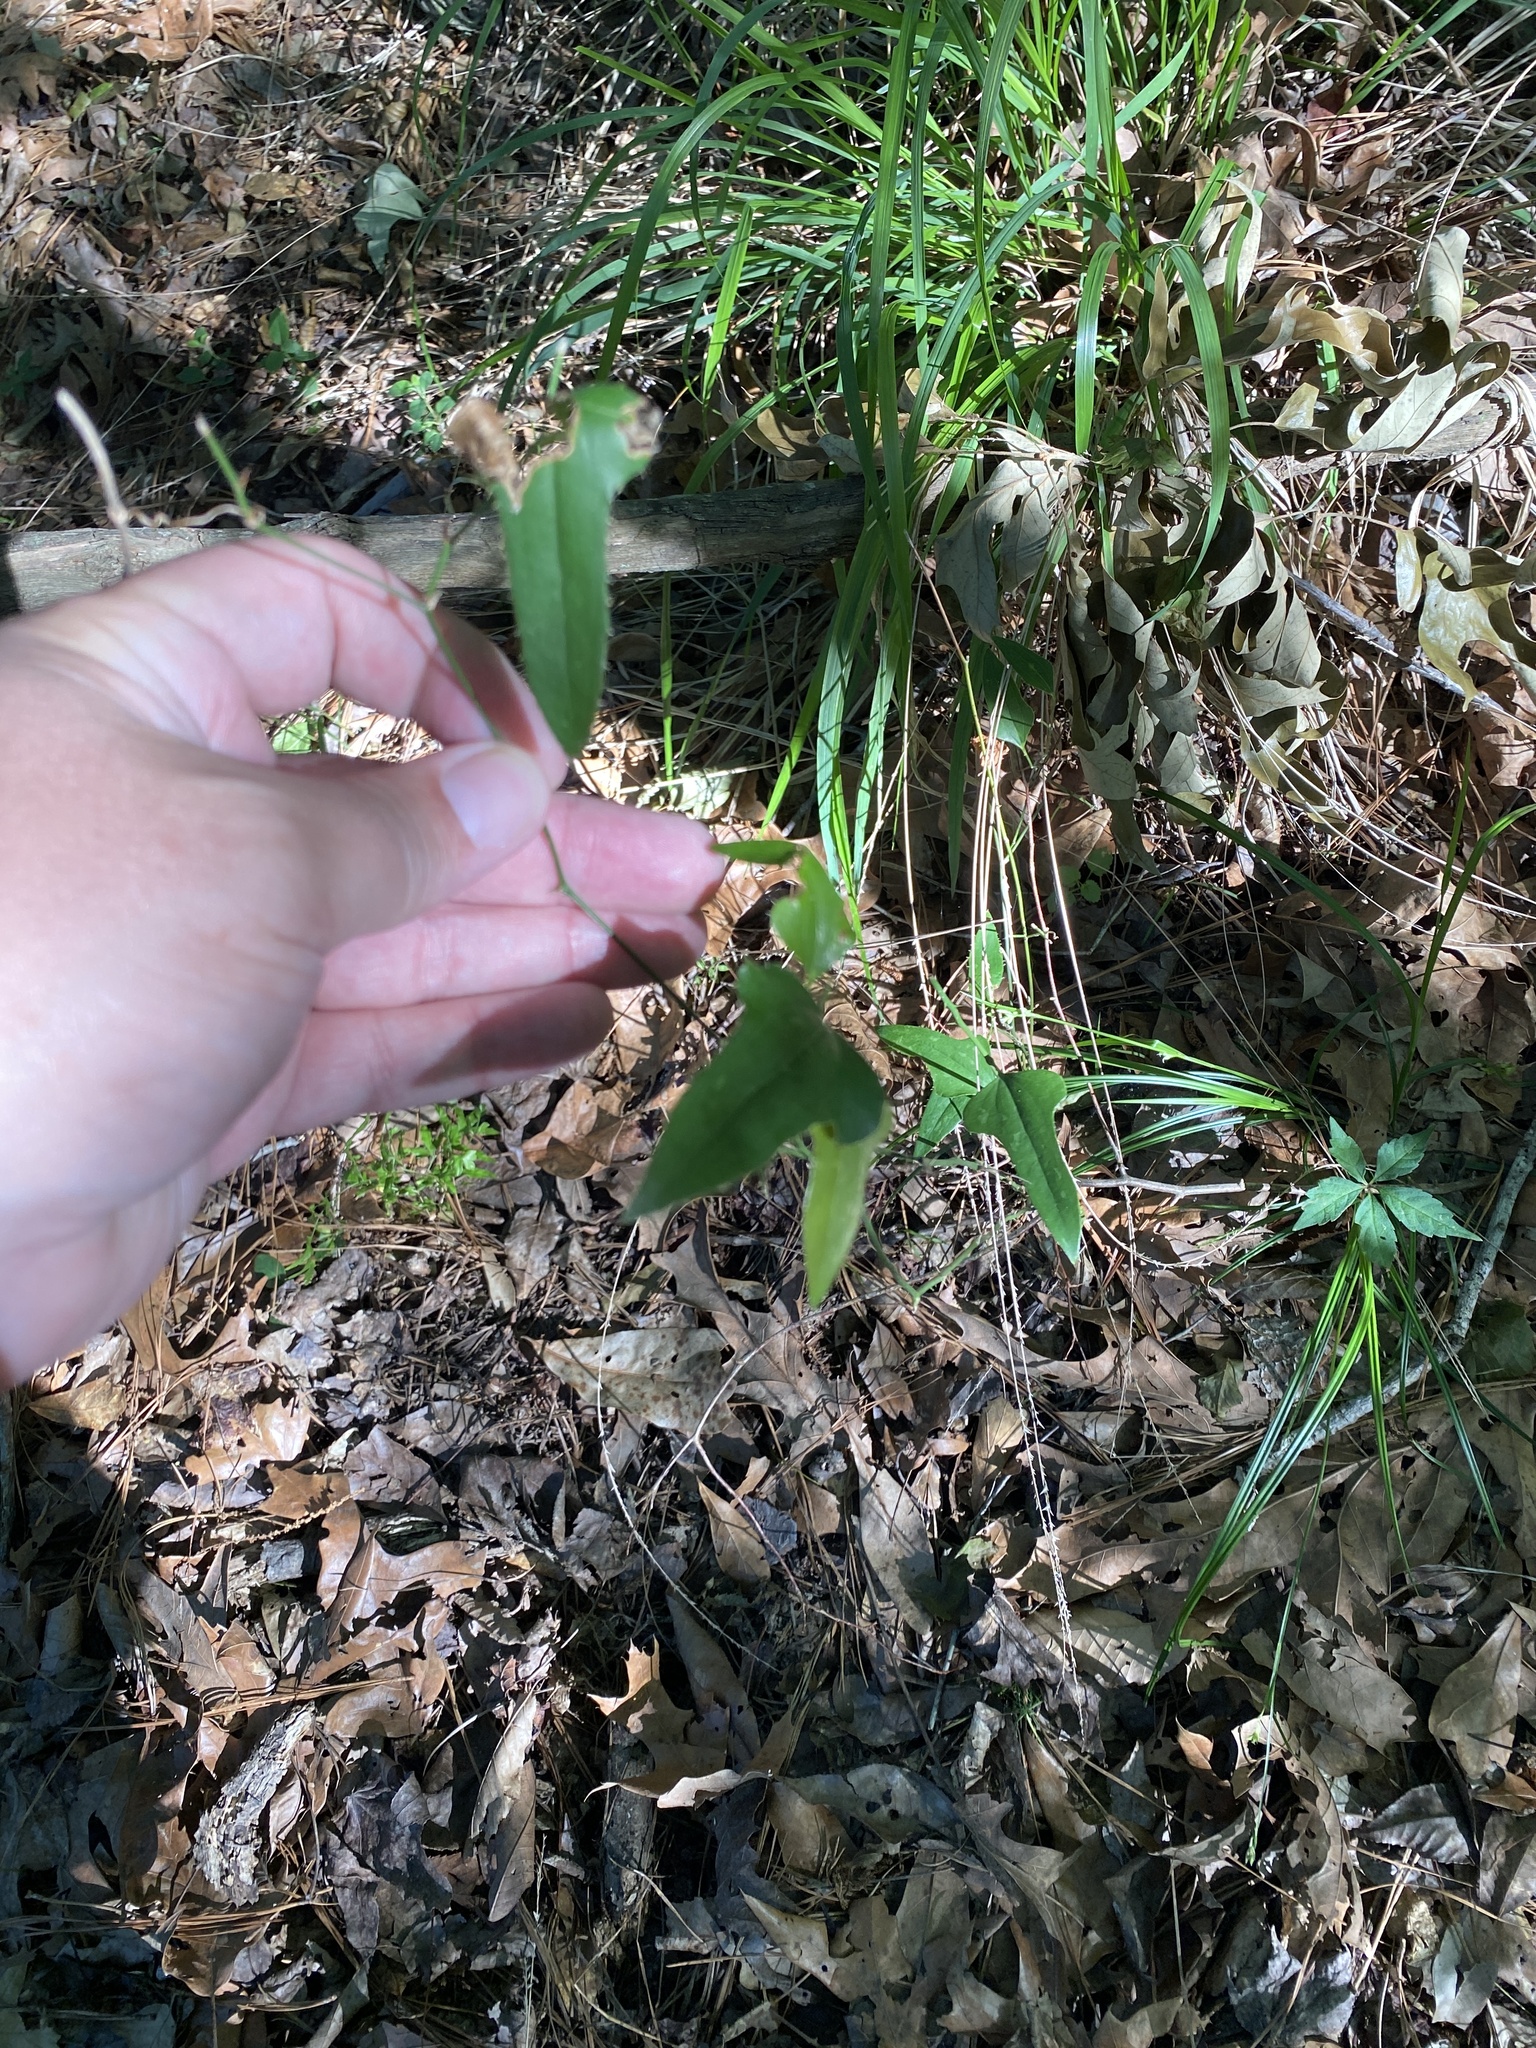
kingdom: Plantae
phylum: Tracheophyta
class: Liliopsida
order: Liliales
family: Smilacaceae
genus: Smilax
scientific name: Smilax bona-nox
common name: Catbrier
